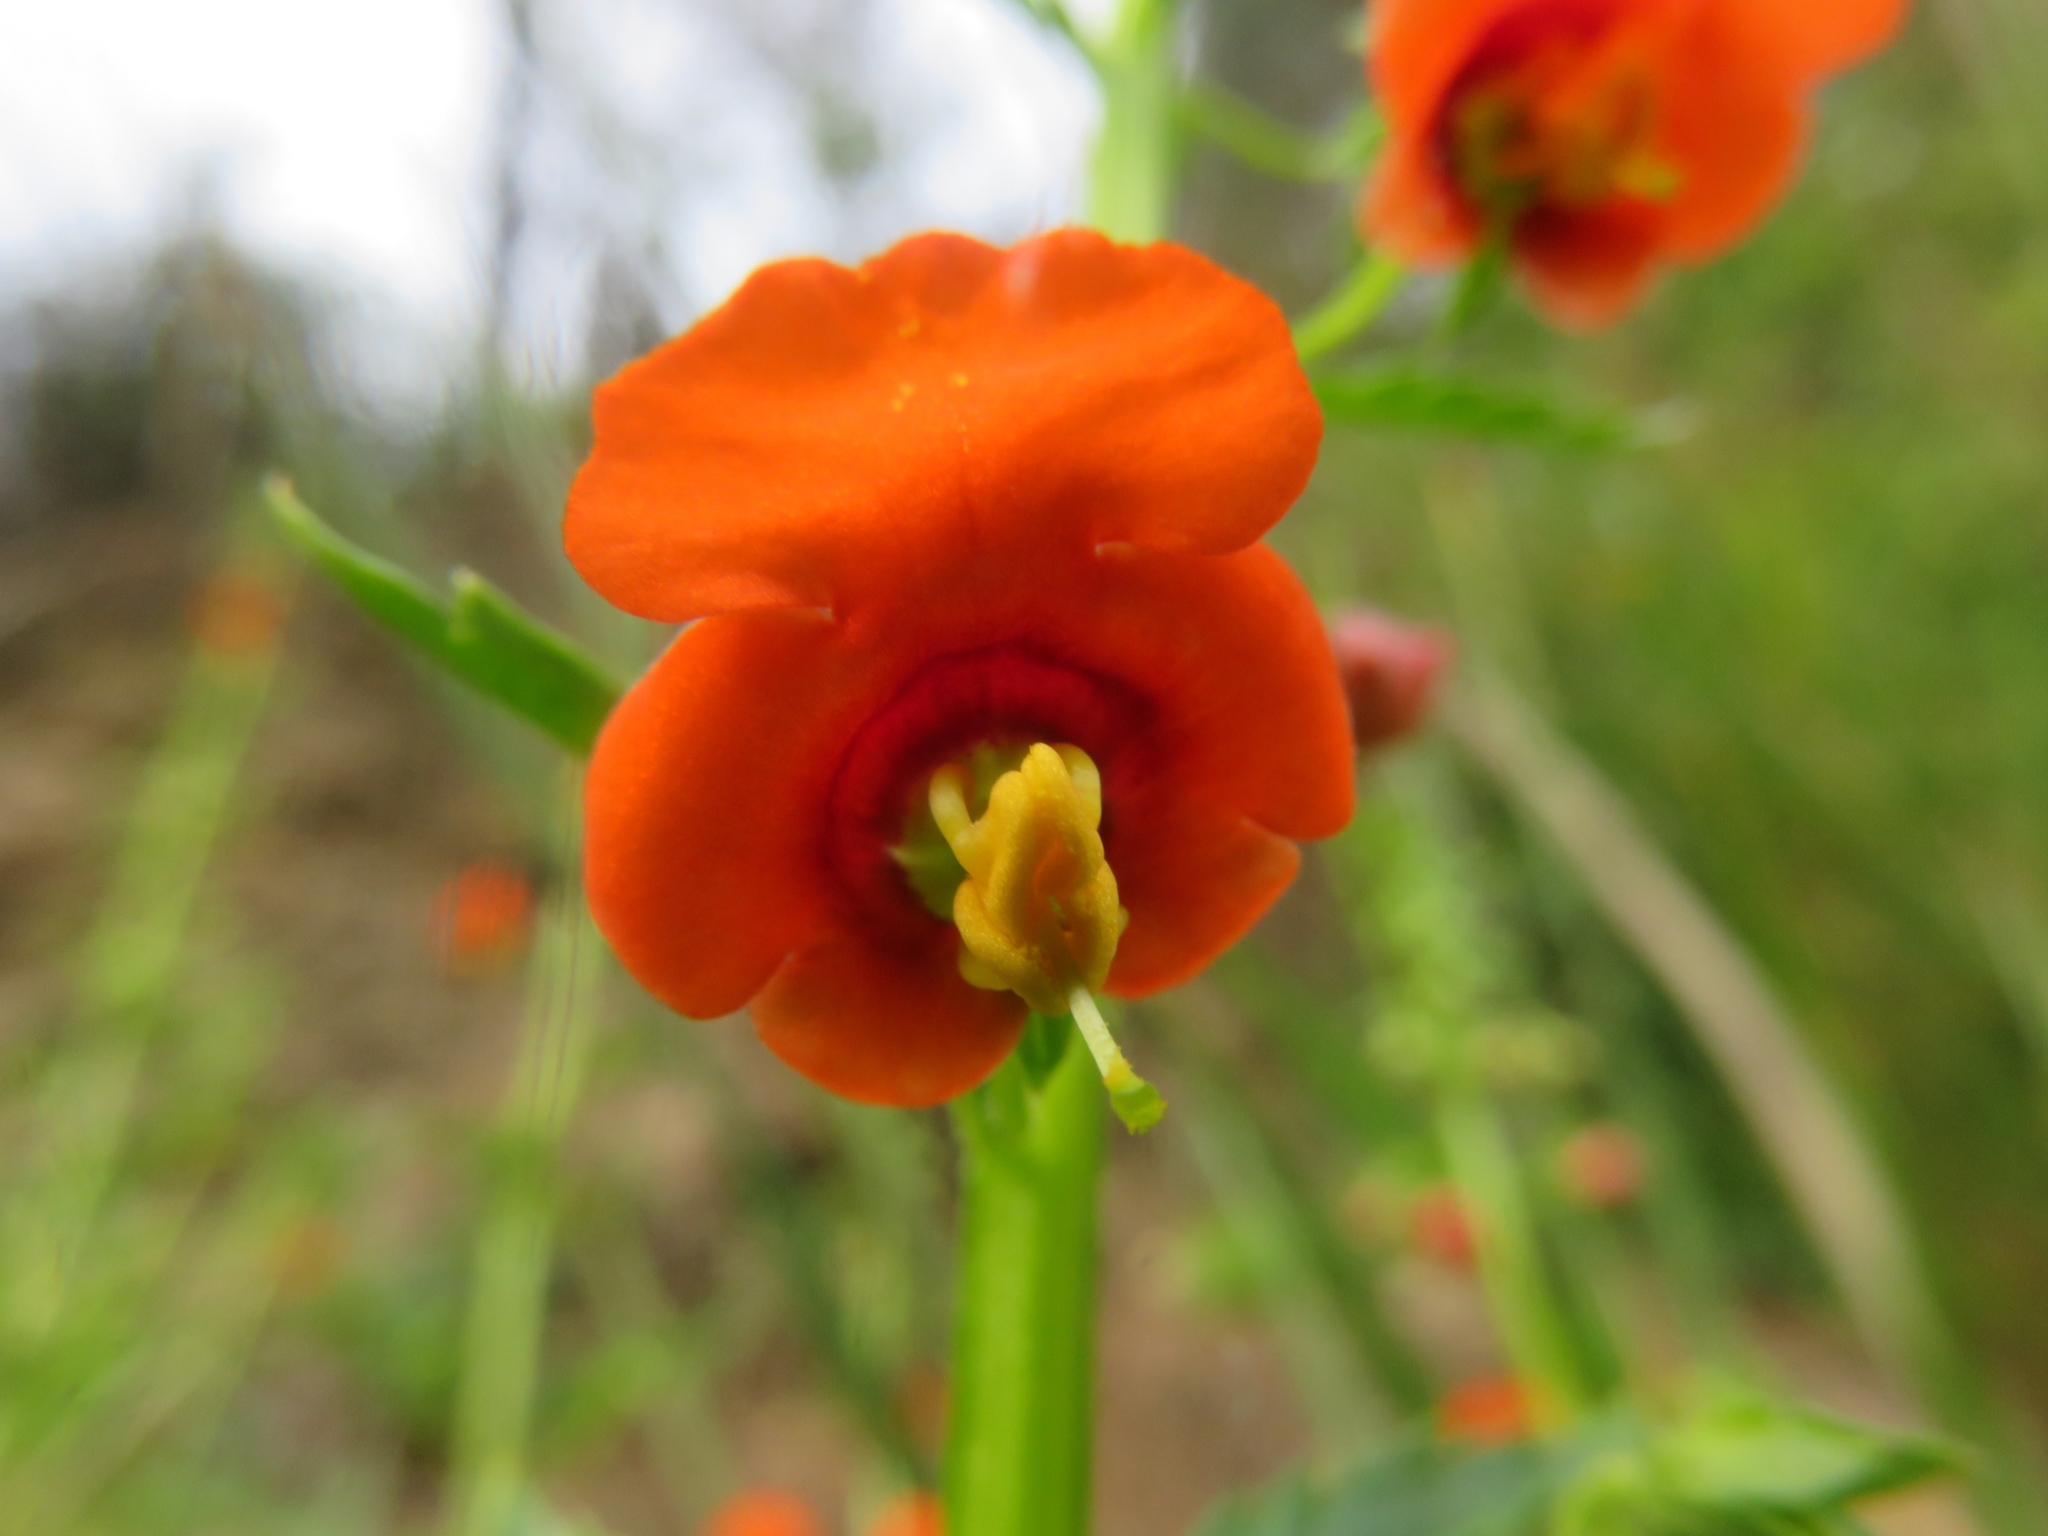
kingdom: Plantae
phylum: Tracheophyta
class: Magnoliopsida
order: Lamiales
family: Scrophulariaceae
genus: Alonsoa
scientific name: Alonsoa meridionalis
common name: Maskflower
